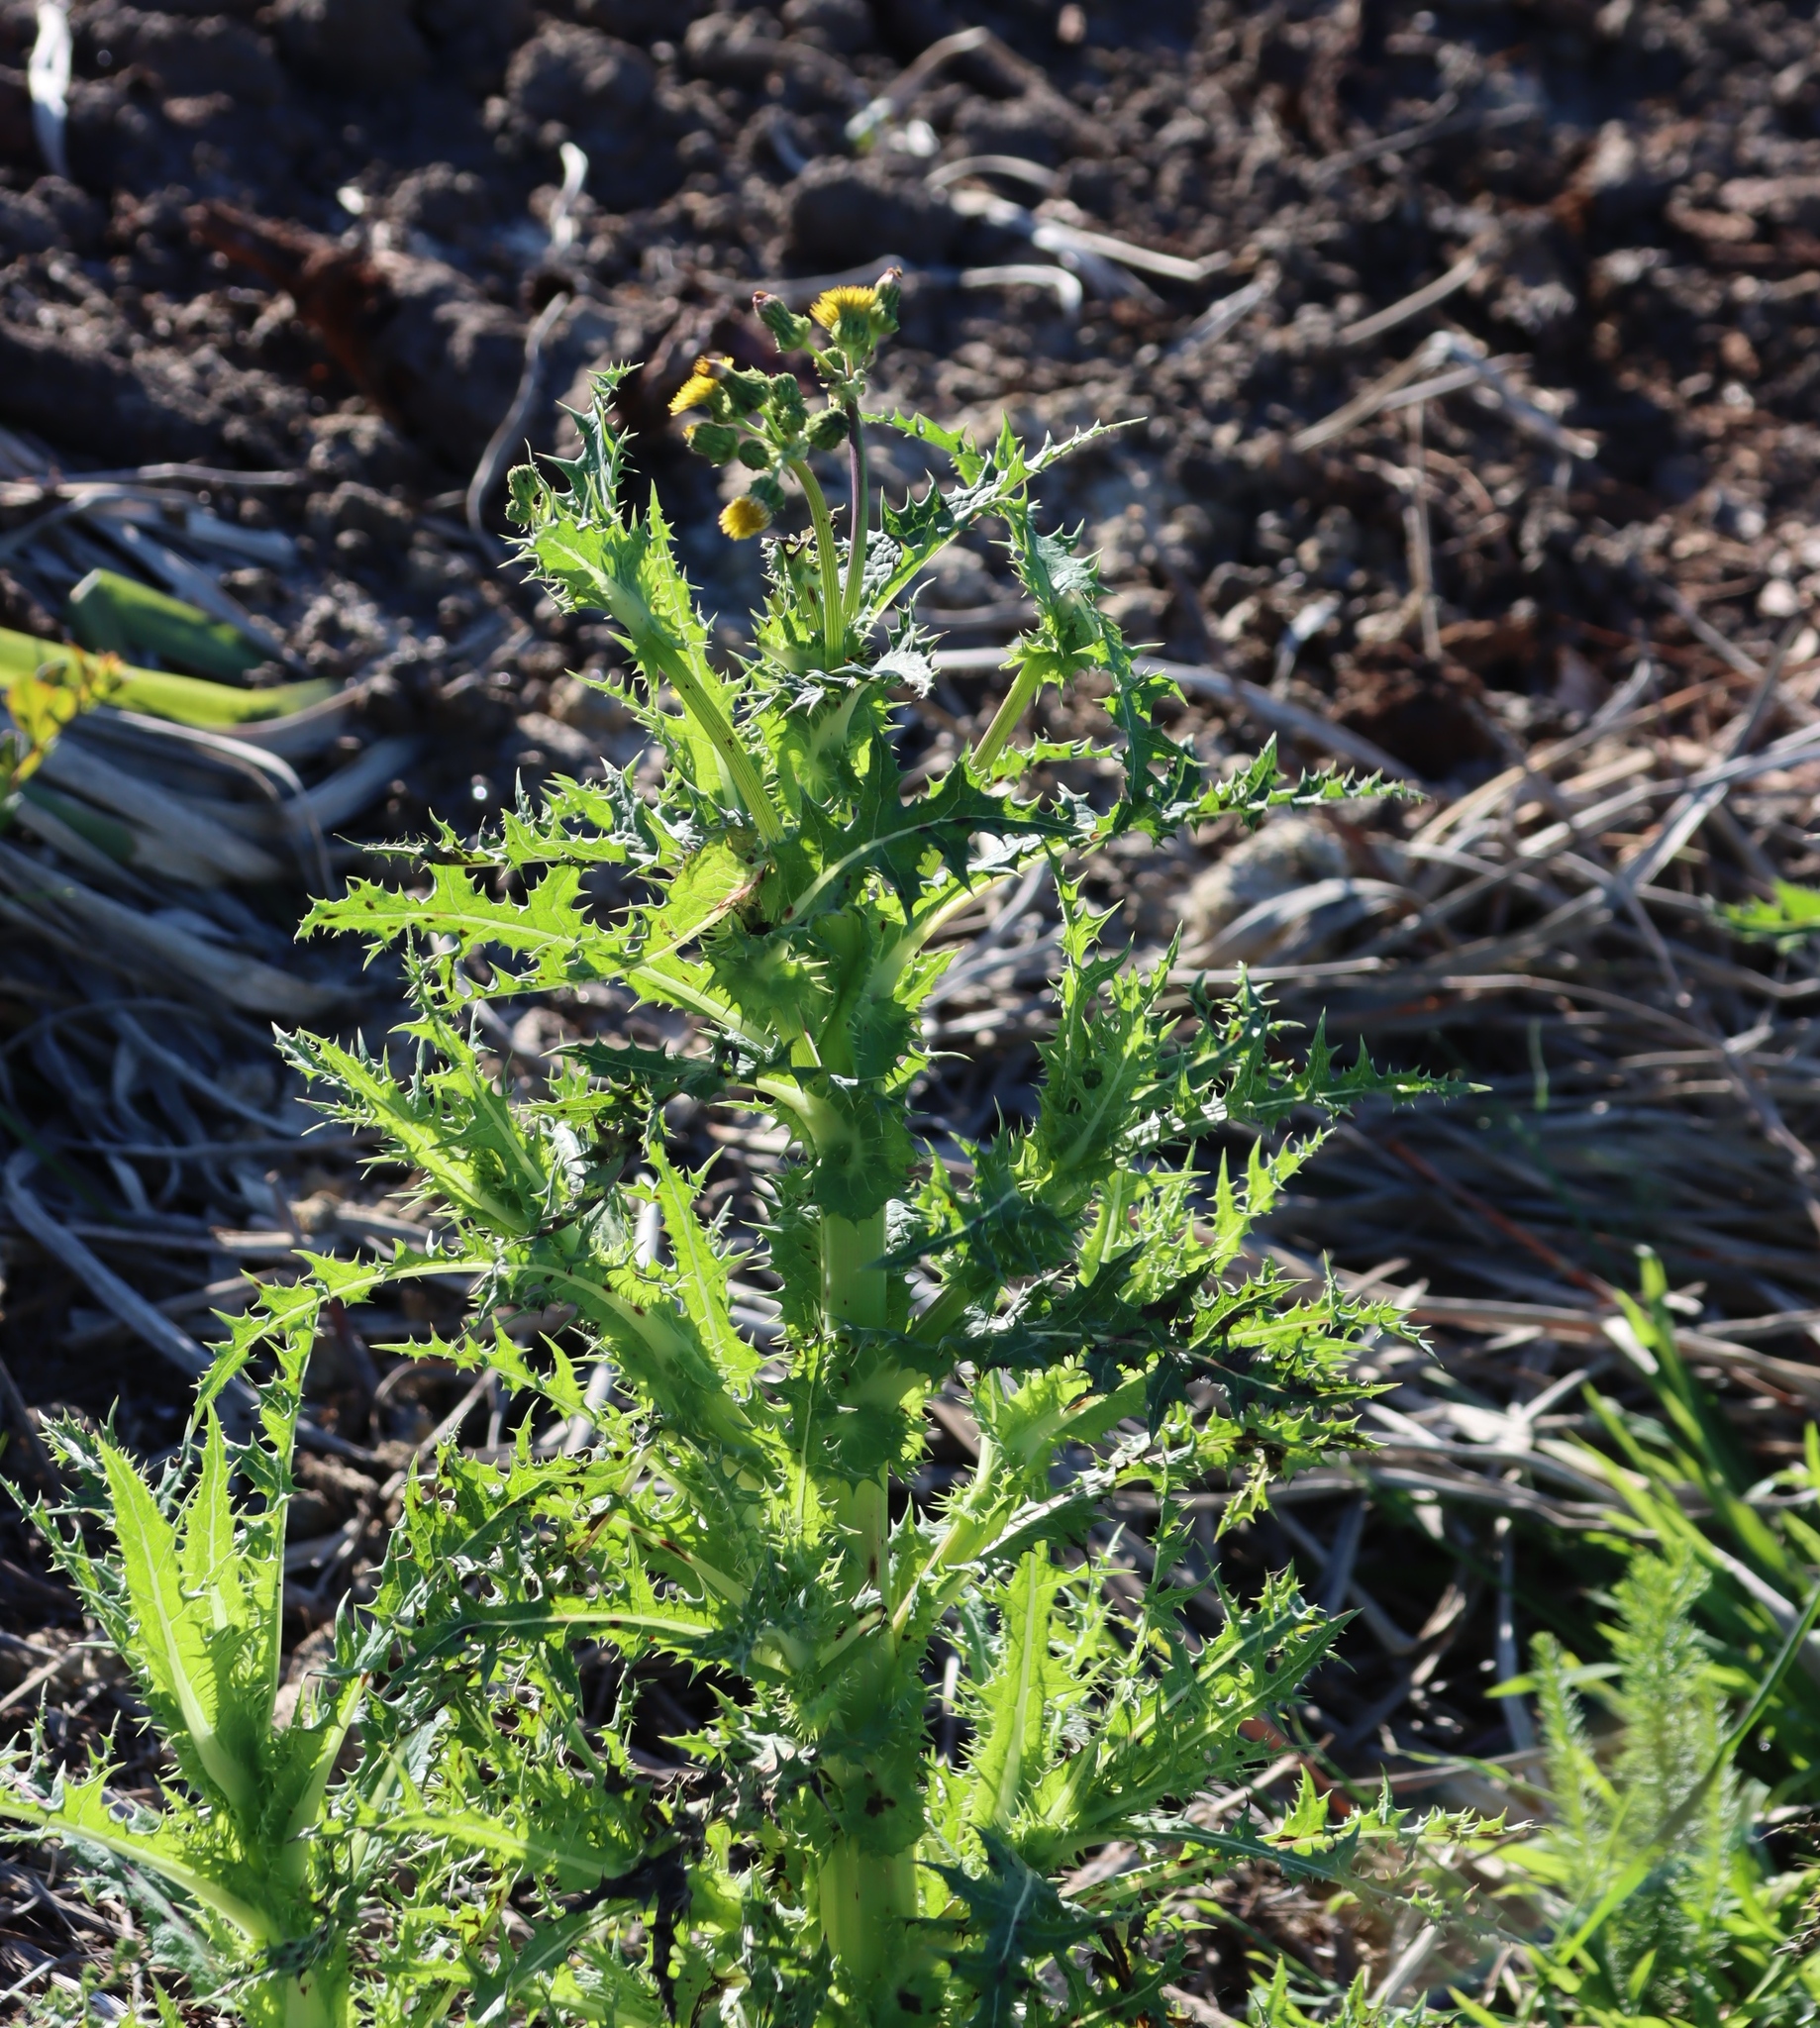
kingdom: Plantae
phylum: Tracheophyta
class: Magnoliopsida
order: Asterales
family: Asteraceae
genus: Sonchus
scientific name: Sonchus asper
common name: Prickly sow-thistle
